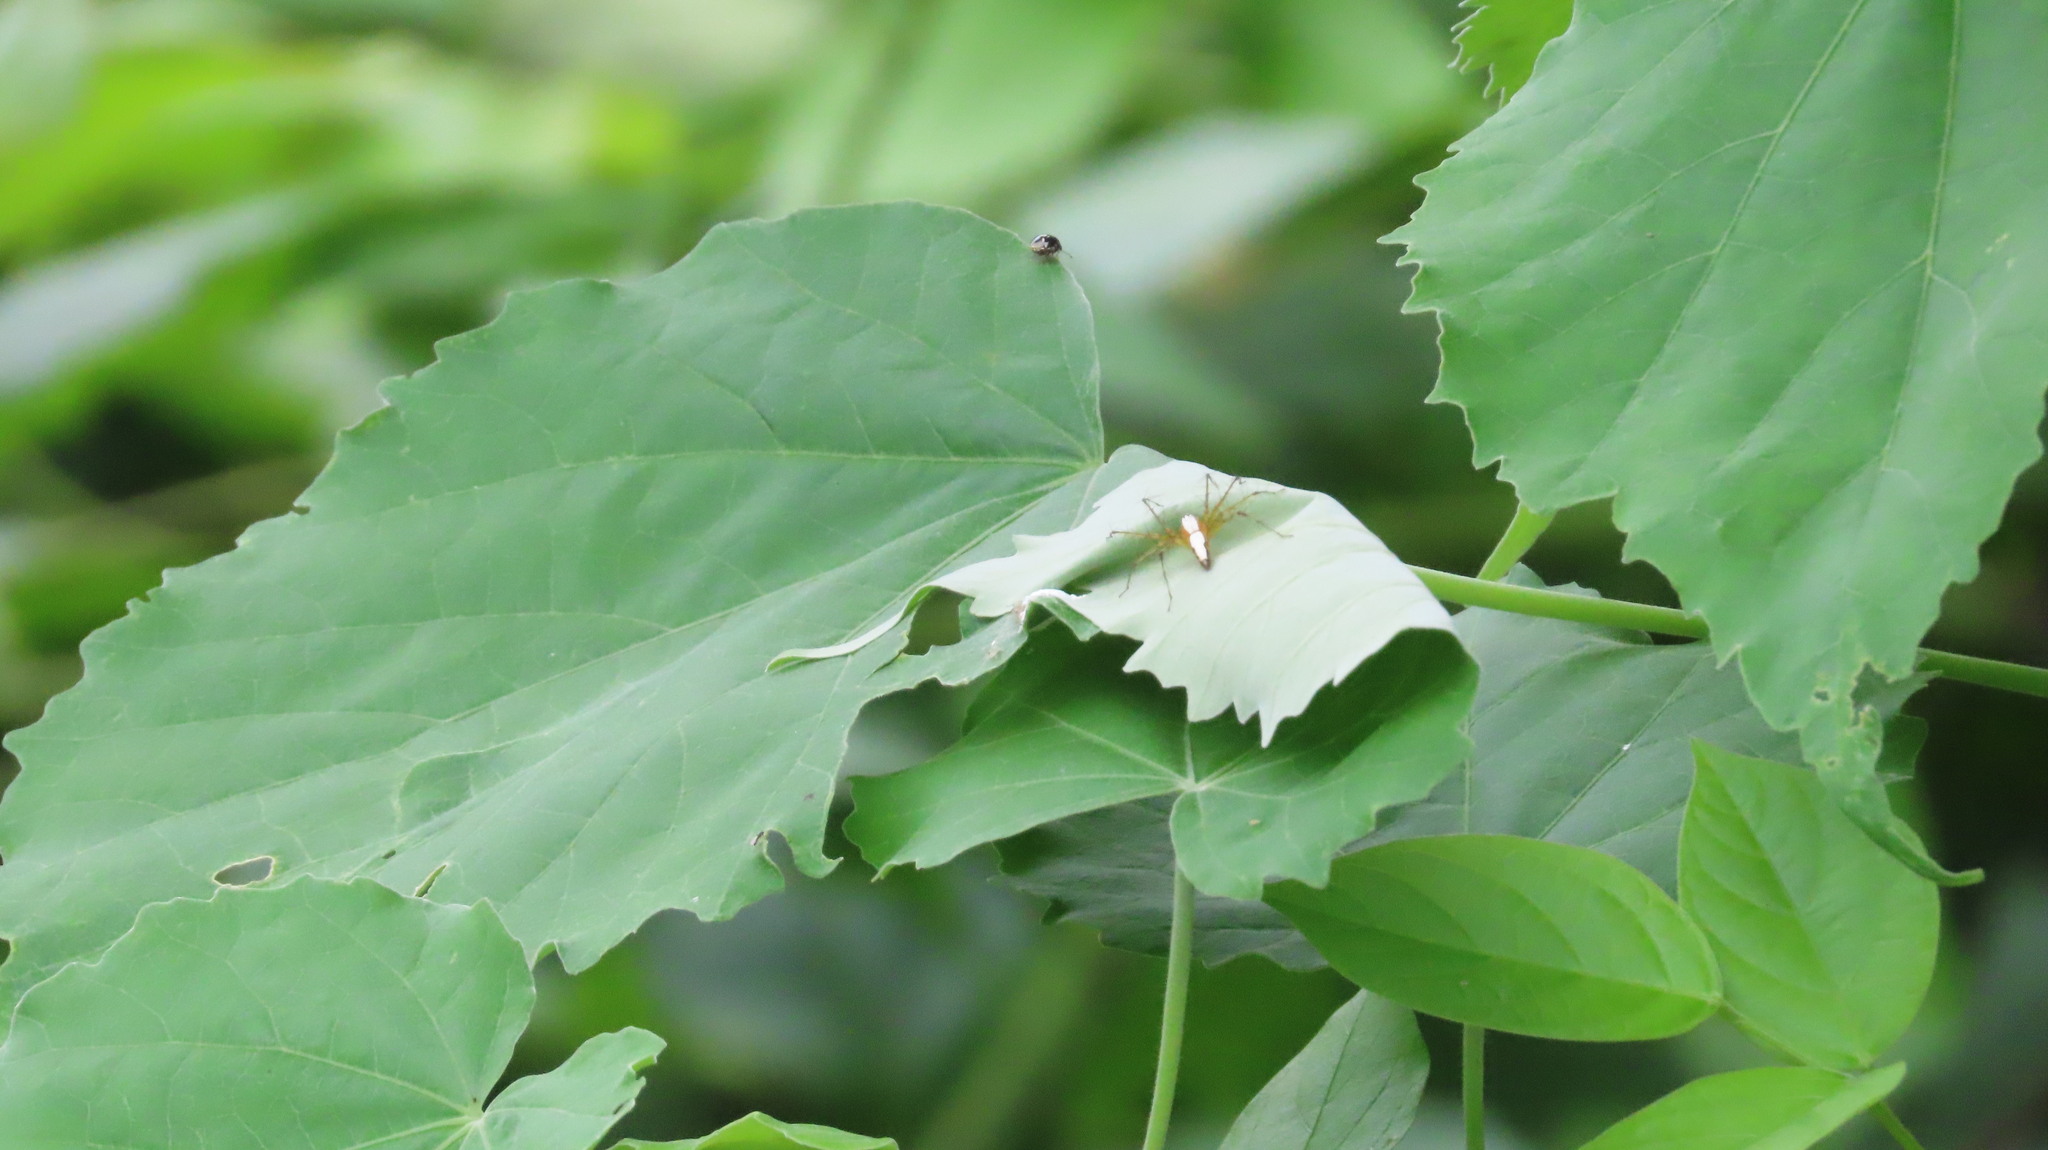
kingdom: Animalia
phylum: Arthropoda
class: Arachnida
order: Araneae
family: Oxyopidae
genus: Oxyopes
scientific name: Oxyopes shweta
